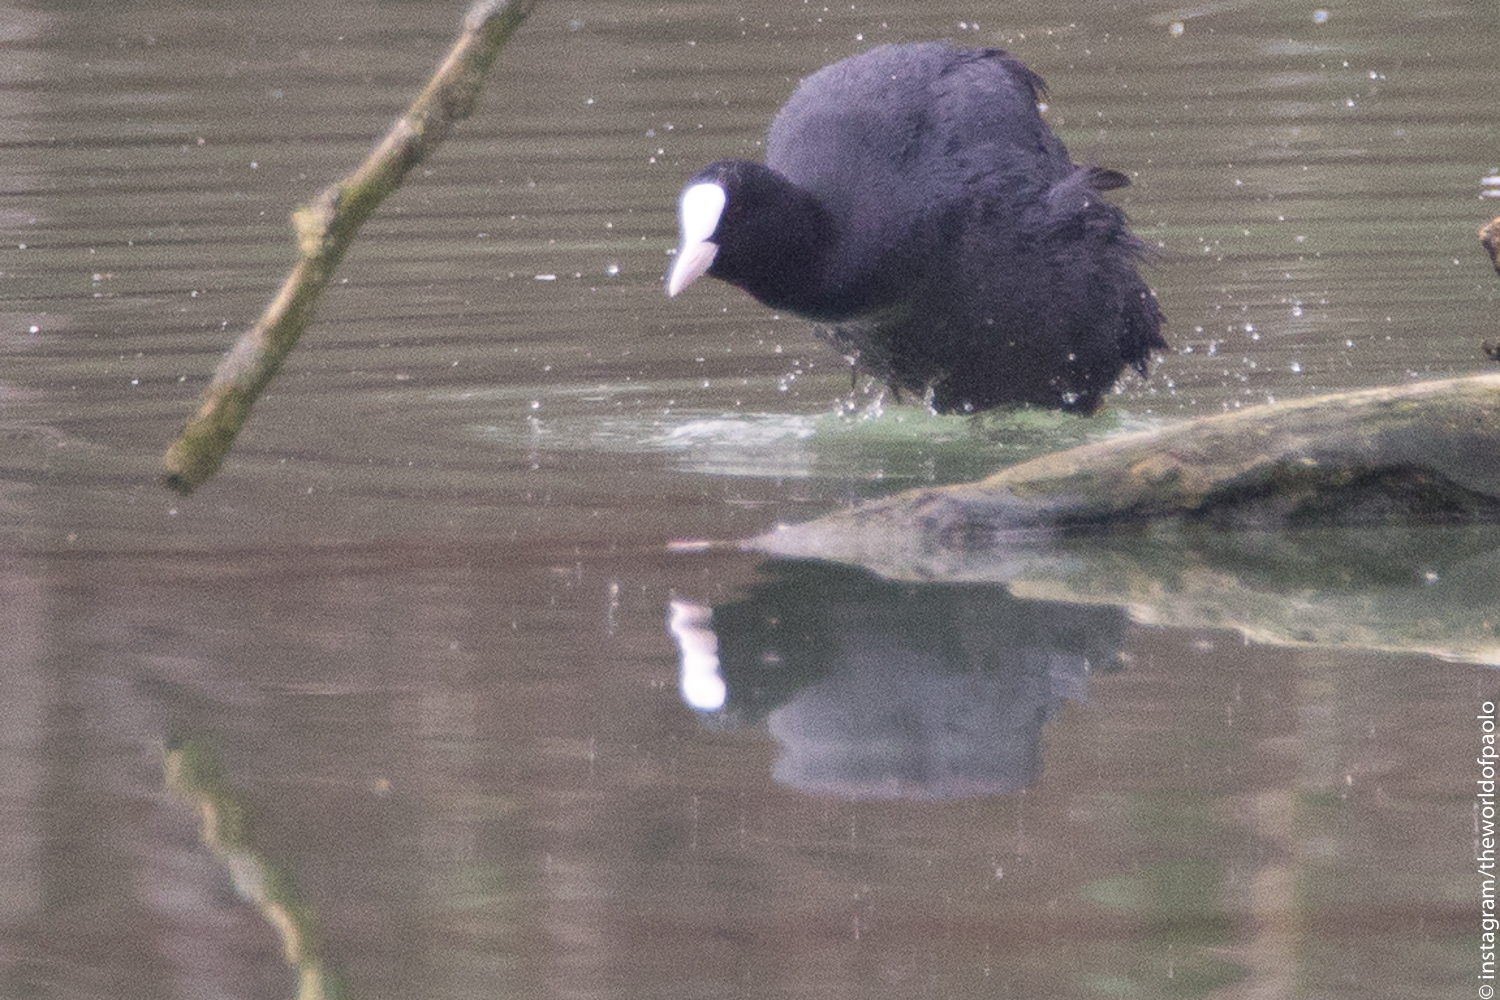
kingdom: Animalia
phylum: Chordata
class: Aves
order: Gruiformes
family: Rallidae
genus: Fulica
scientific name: Fulica atra
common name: Eurasian coot
